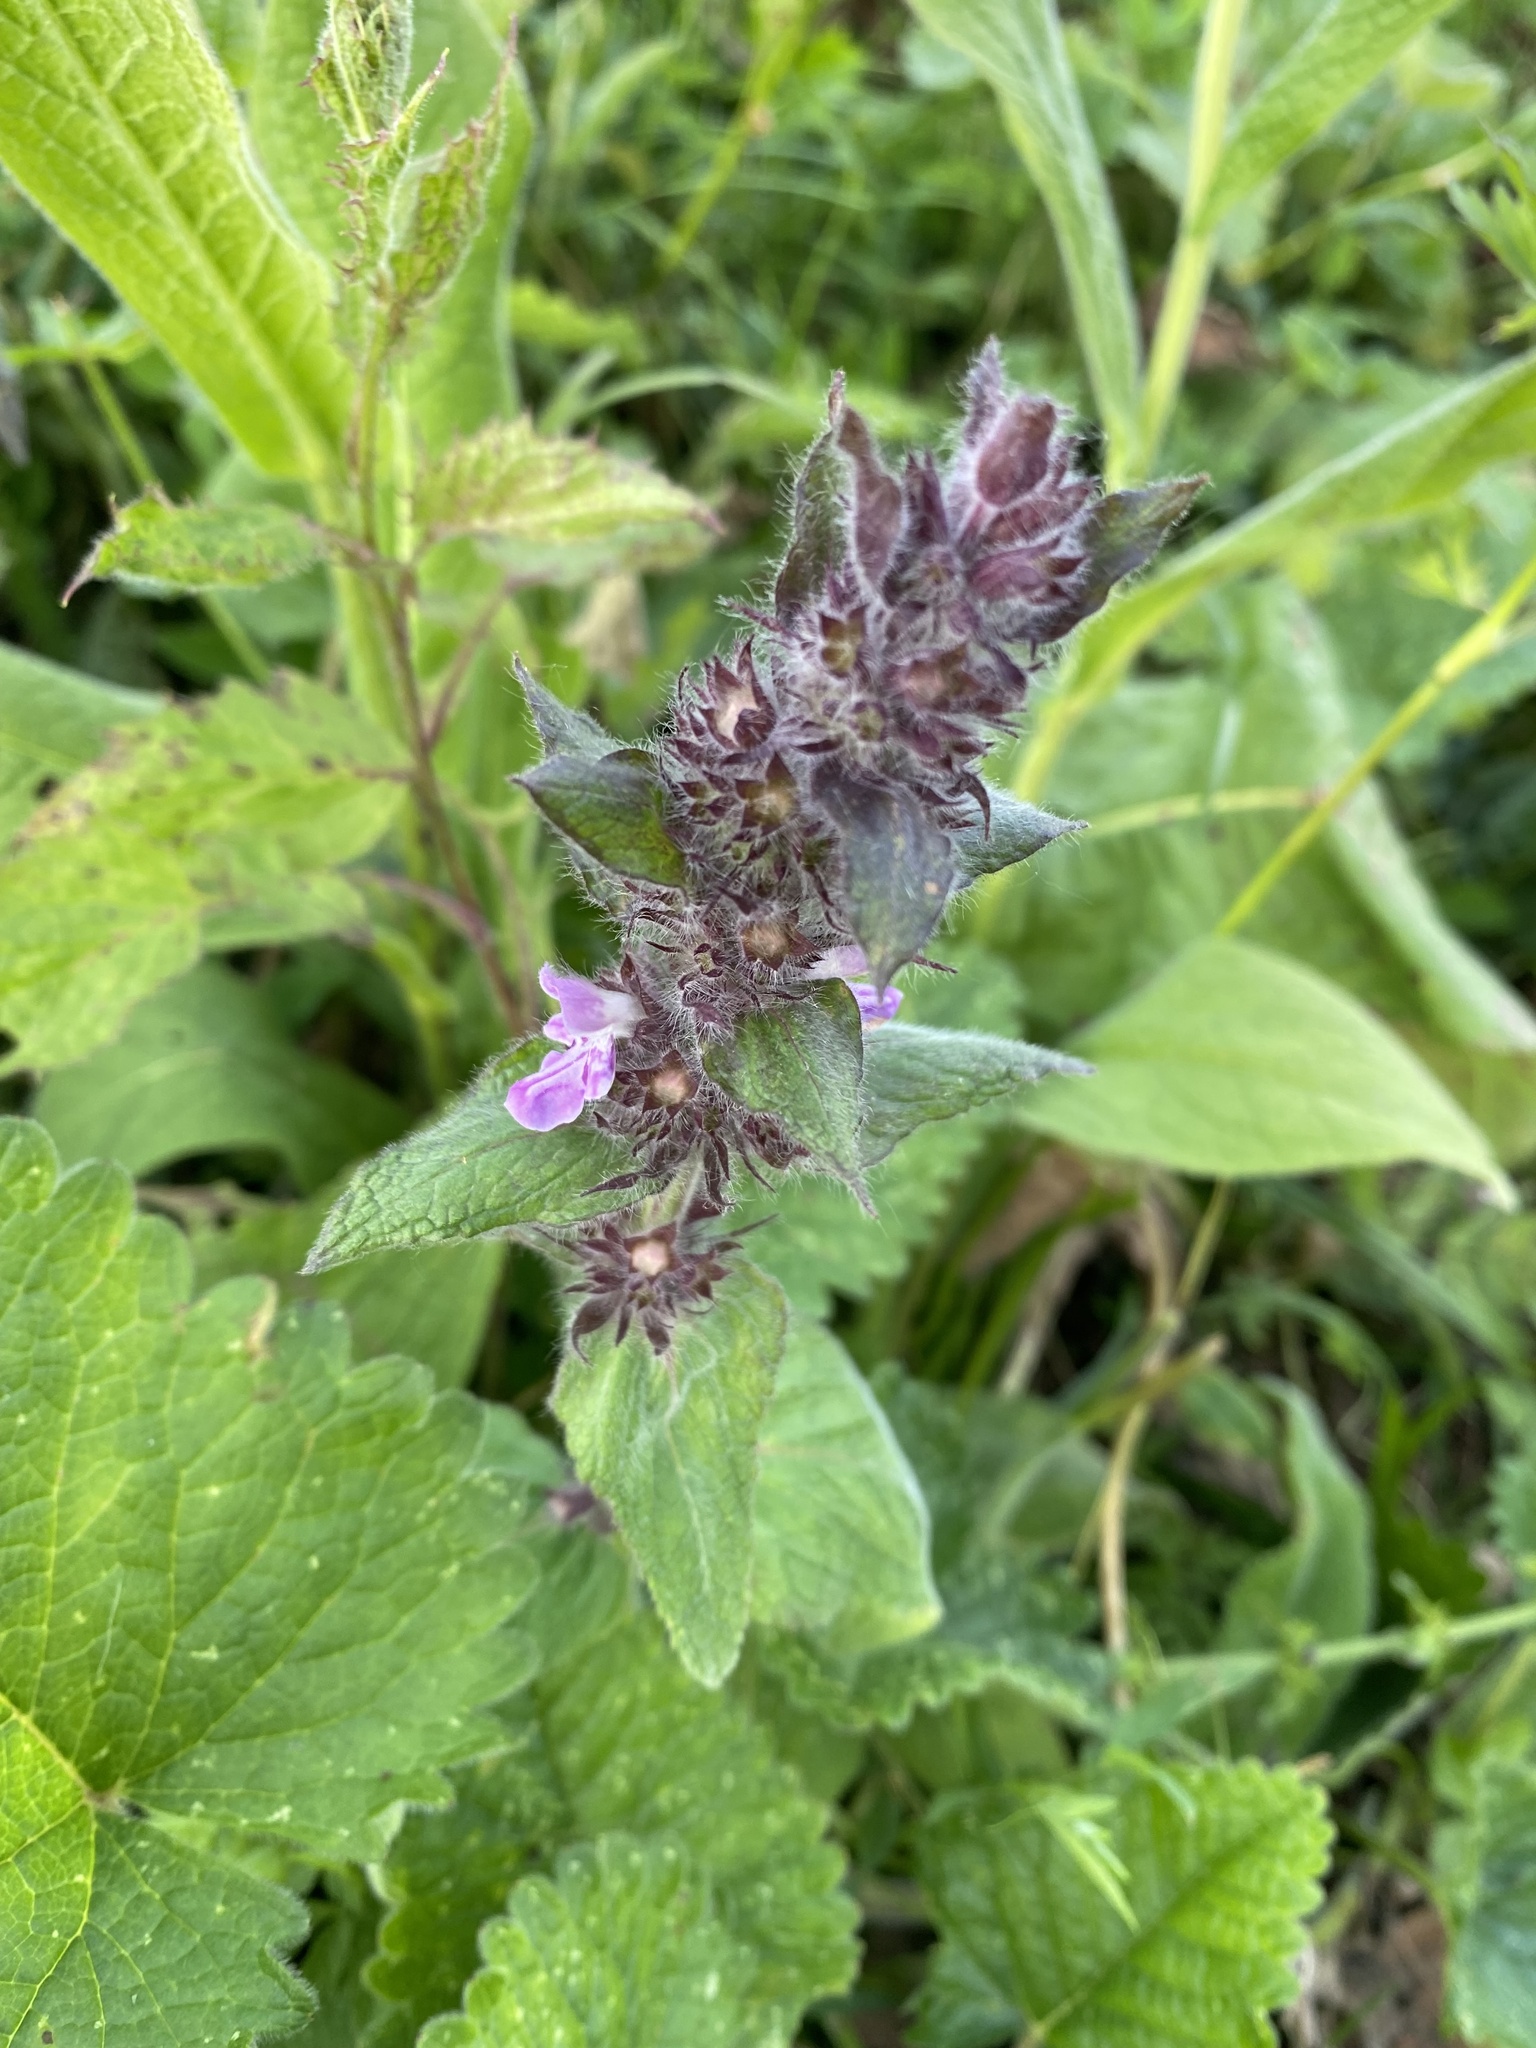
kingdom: Plantae
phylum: Tracheophyta
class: Magnoliopsida
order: Lamiales
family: Lamiaceae
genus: Stachys
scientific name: Stachys balansae
